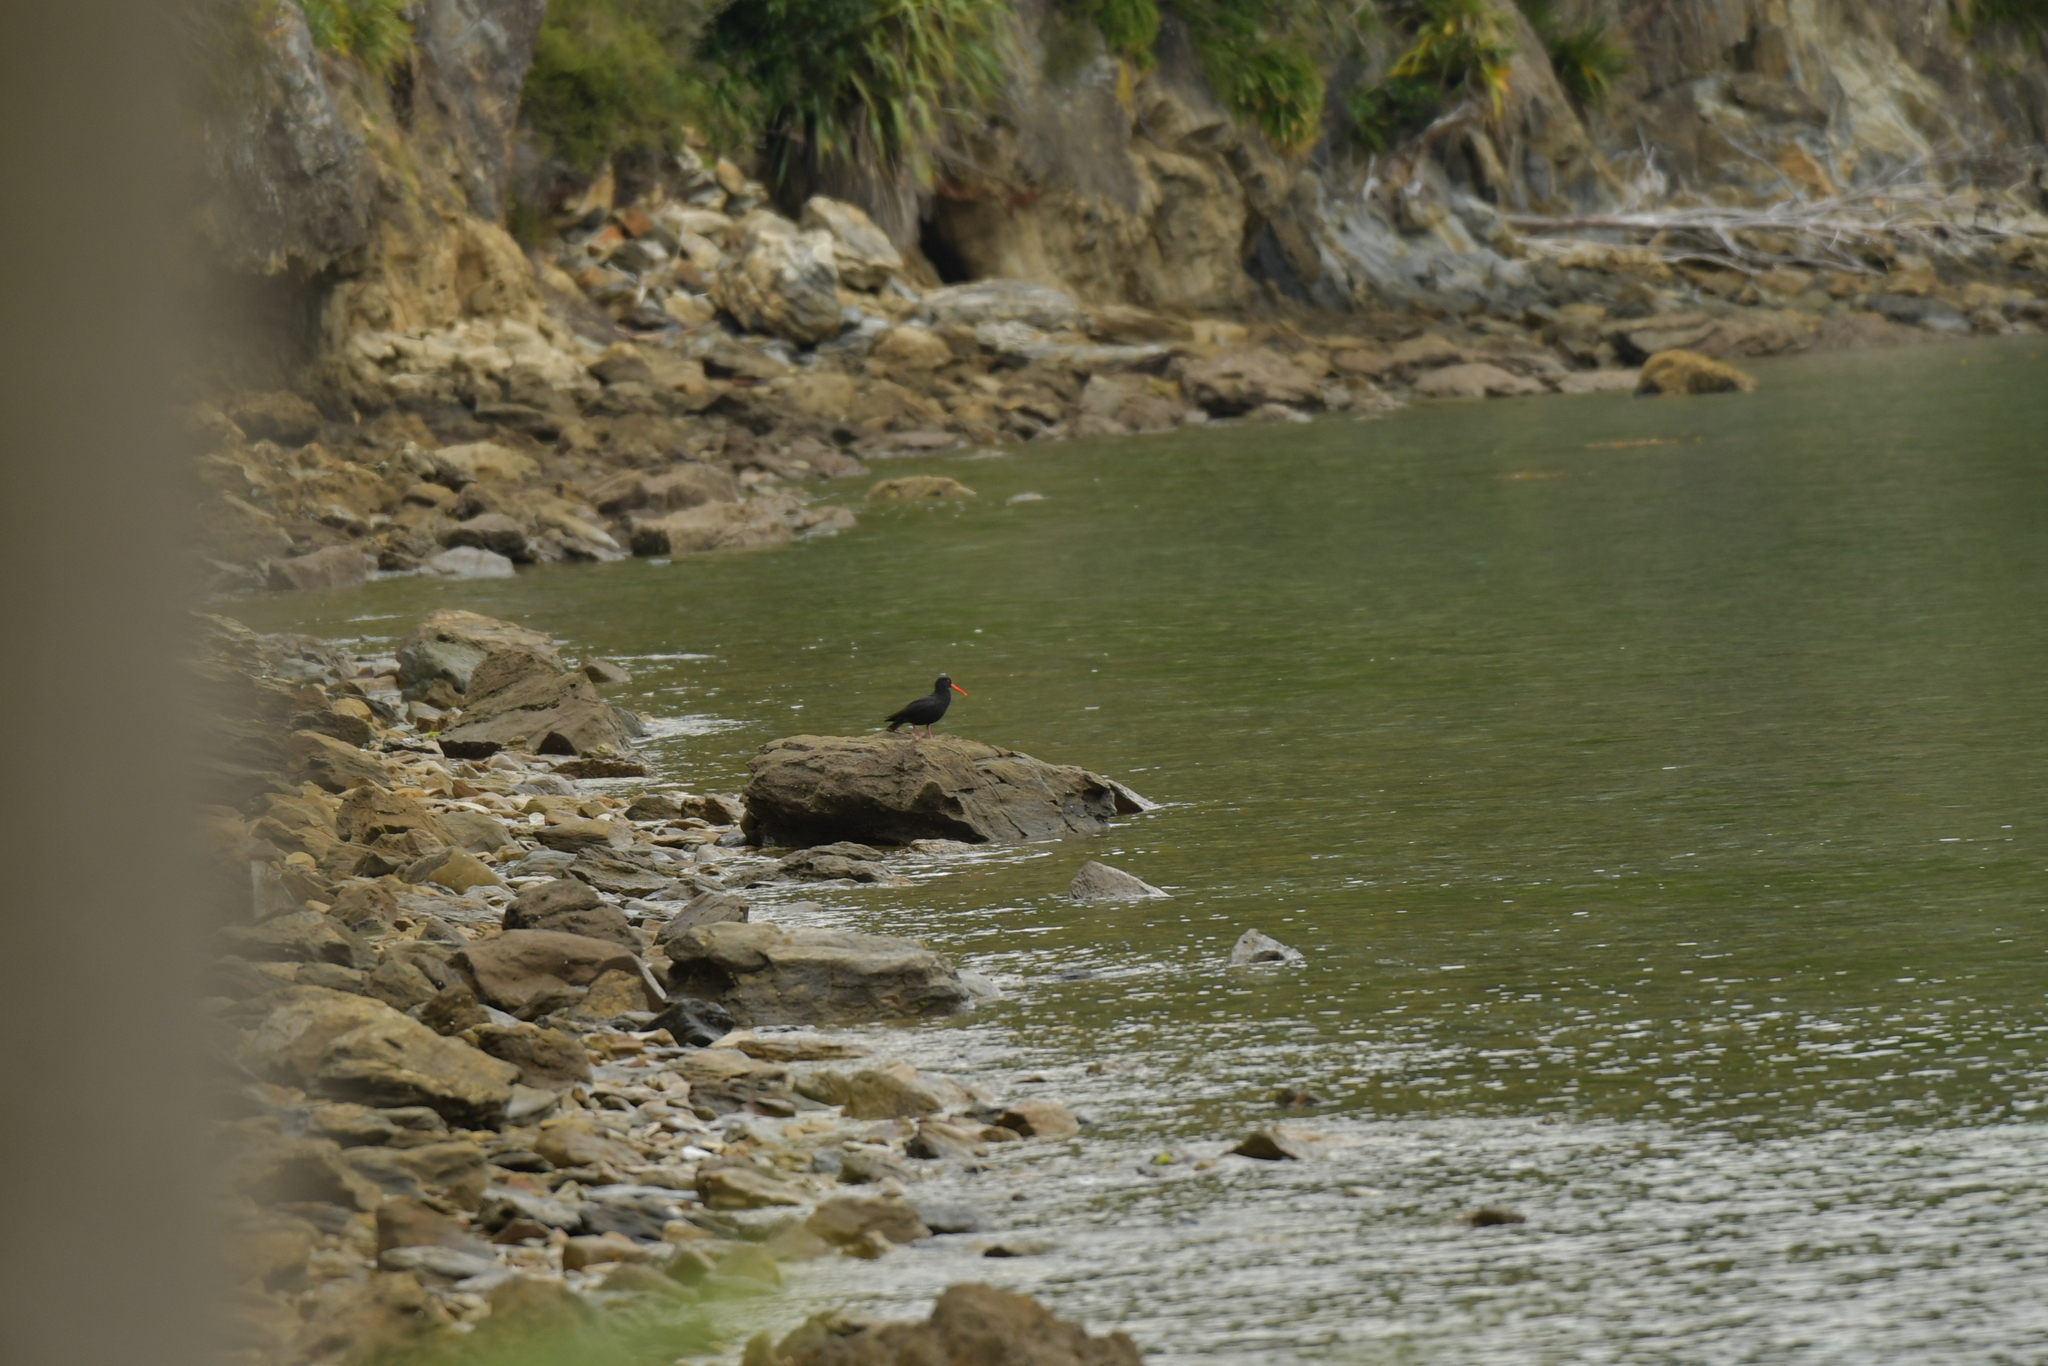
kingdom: Animalia
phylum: Chordata
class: Aves
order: Charadriiformes
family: Haematopodidae
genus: Haematopus
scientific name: Haematopus unicolor
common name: Variable oystercatcher
